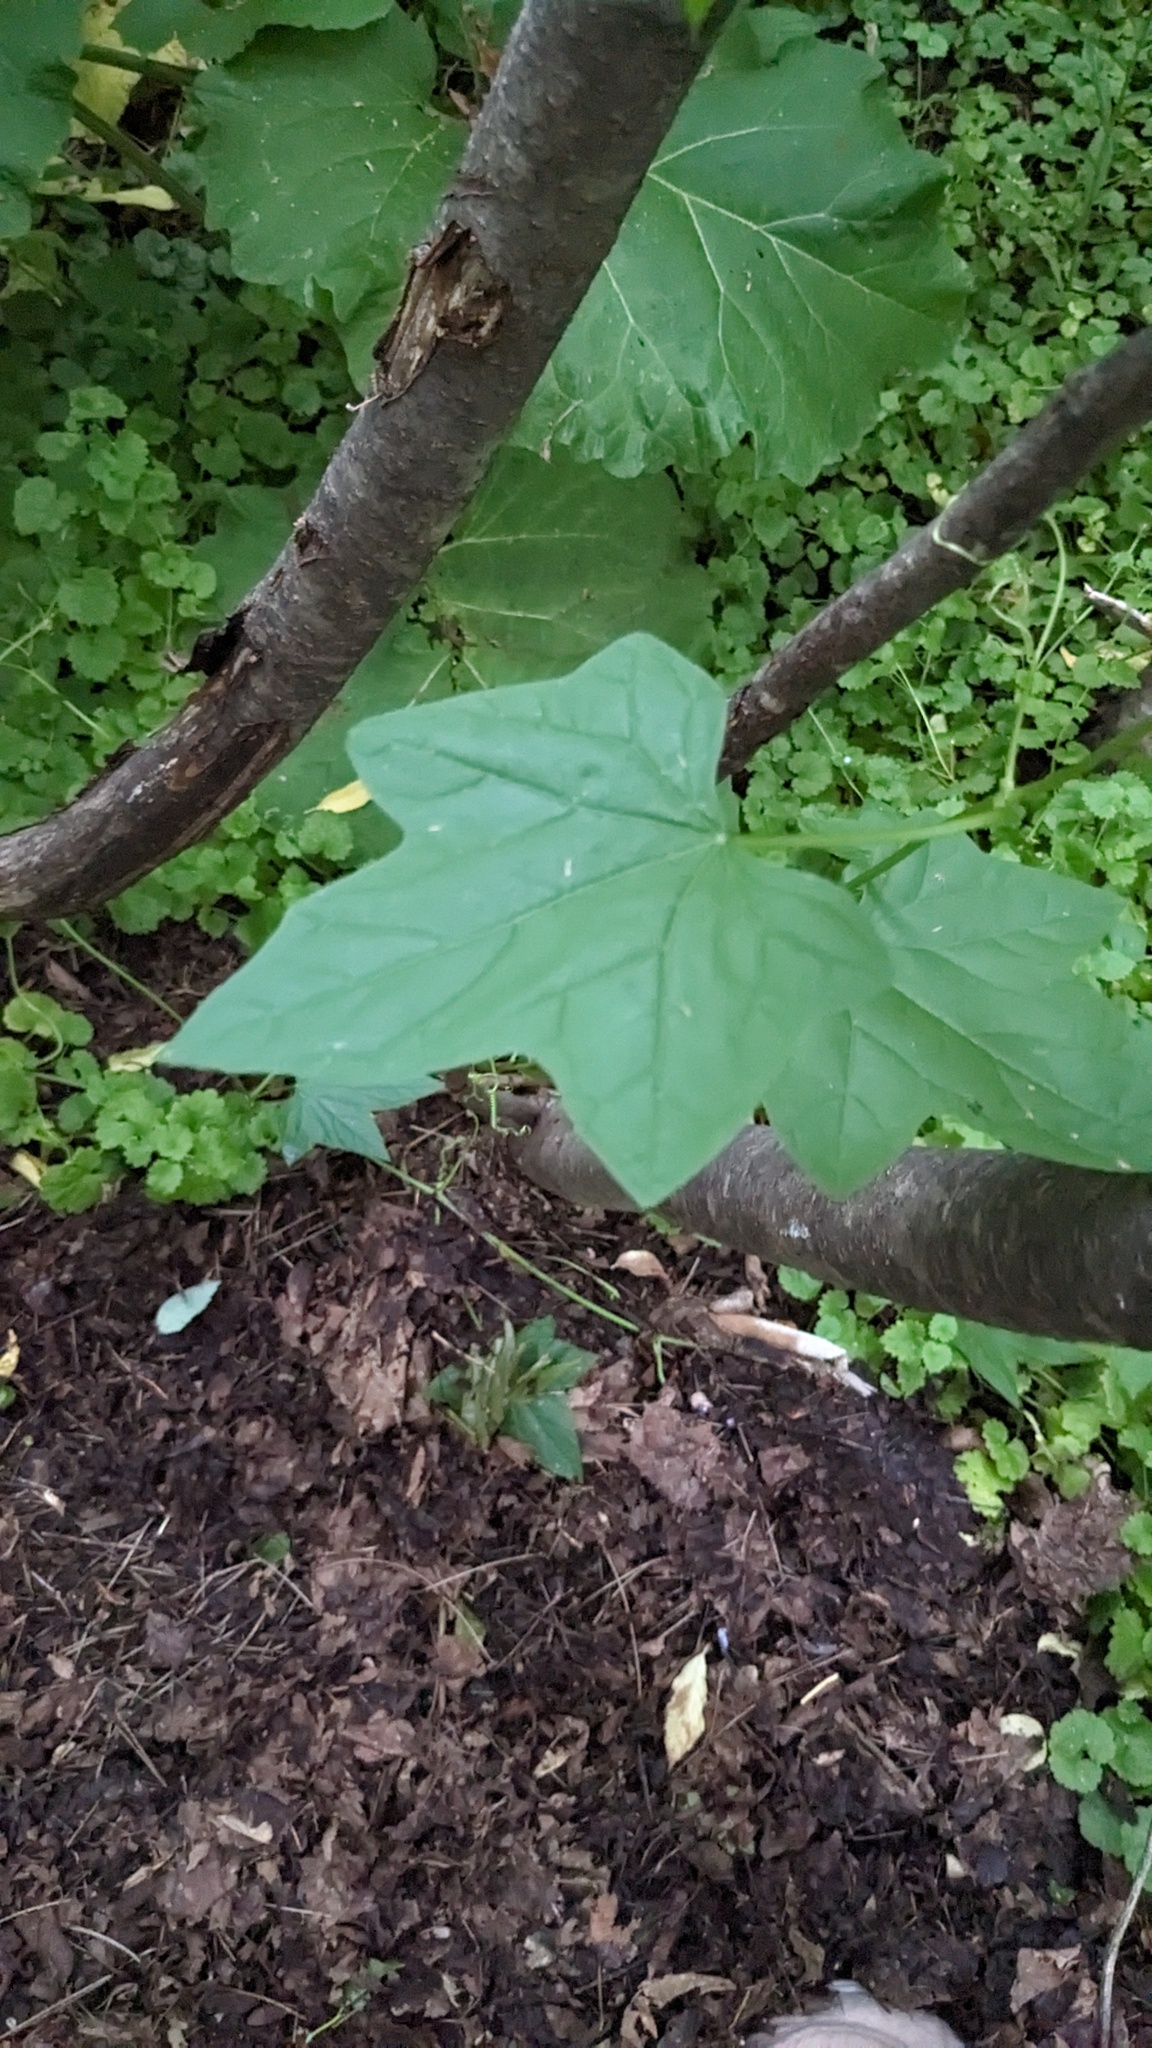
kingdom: Plantae
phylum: Tracheophyta
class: Magnoliopsida
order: Cucurbitales
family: Cucurbitaceae
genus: Echinocystis
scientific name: Echinocystis lobata
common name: Wild cucumber
